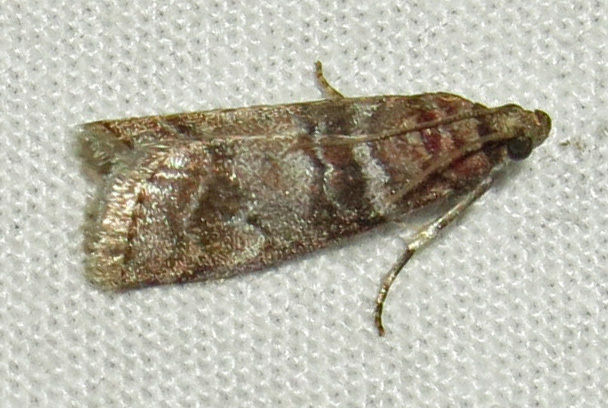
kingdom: Animalia
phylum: Arthropoda
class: Insecta
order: Lepidoptera
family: Pyralidae
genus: Sciota
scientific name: Sciota uvinella
